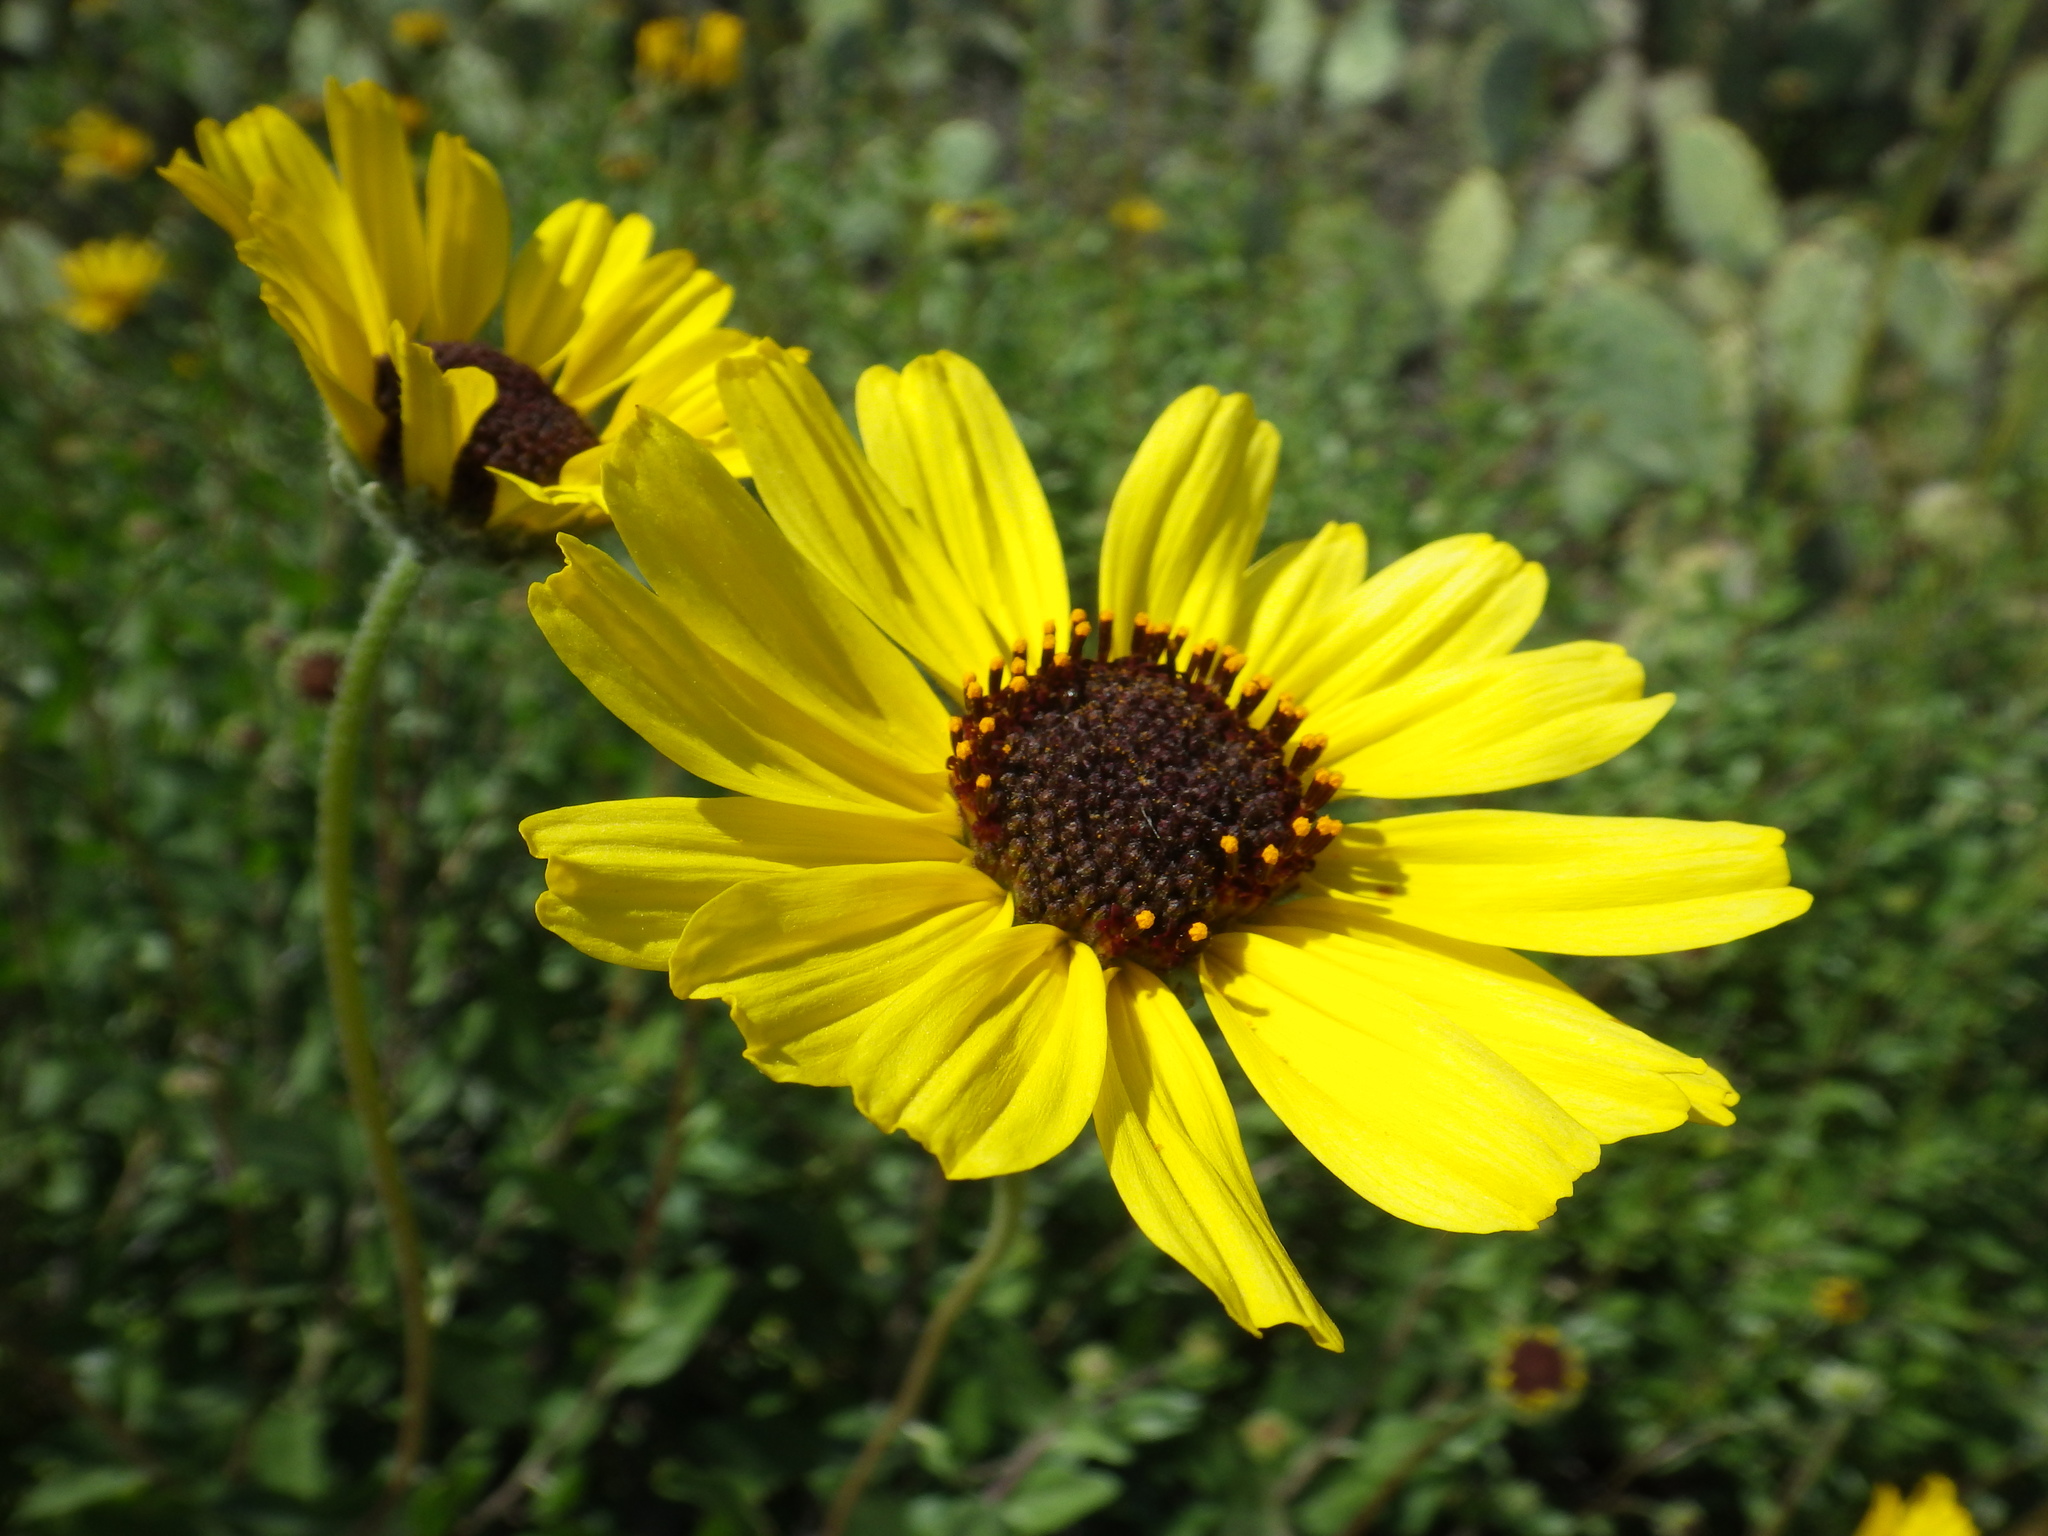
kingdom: Plantae
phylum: Tracheophyta
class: Magnoliopsida
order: Asterales
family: Asteraceae
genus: Encelia
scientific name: Encelia californica
